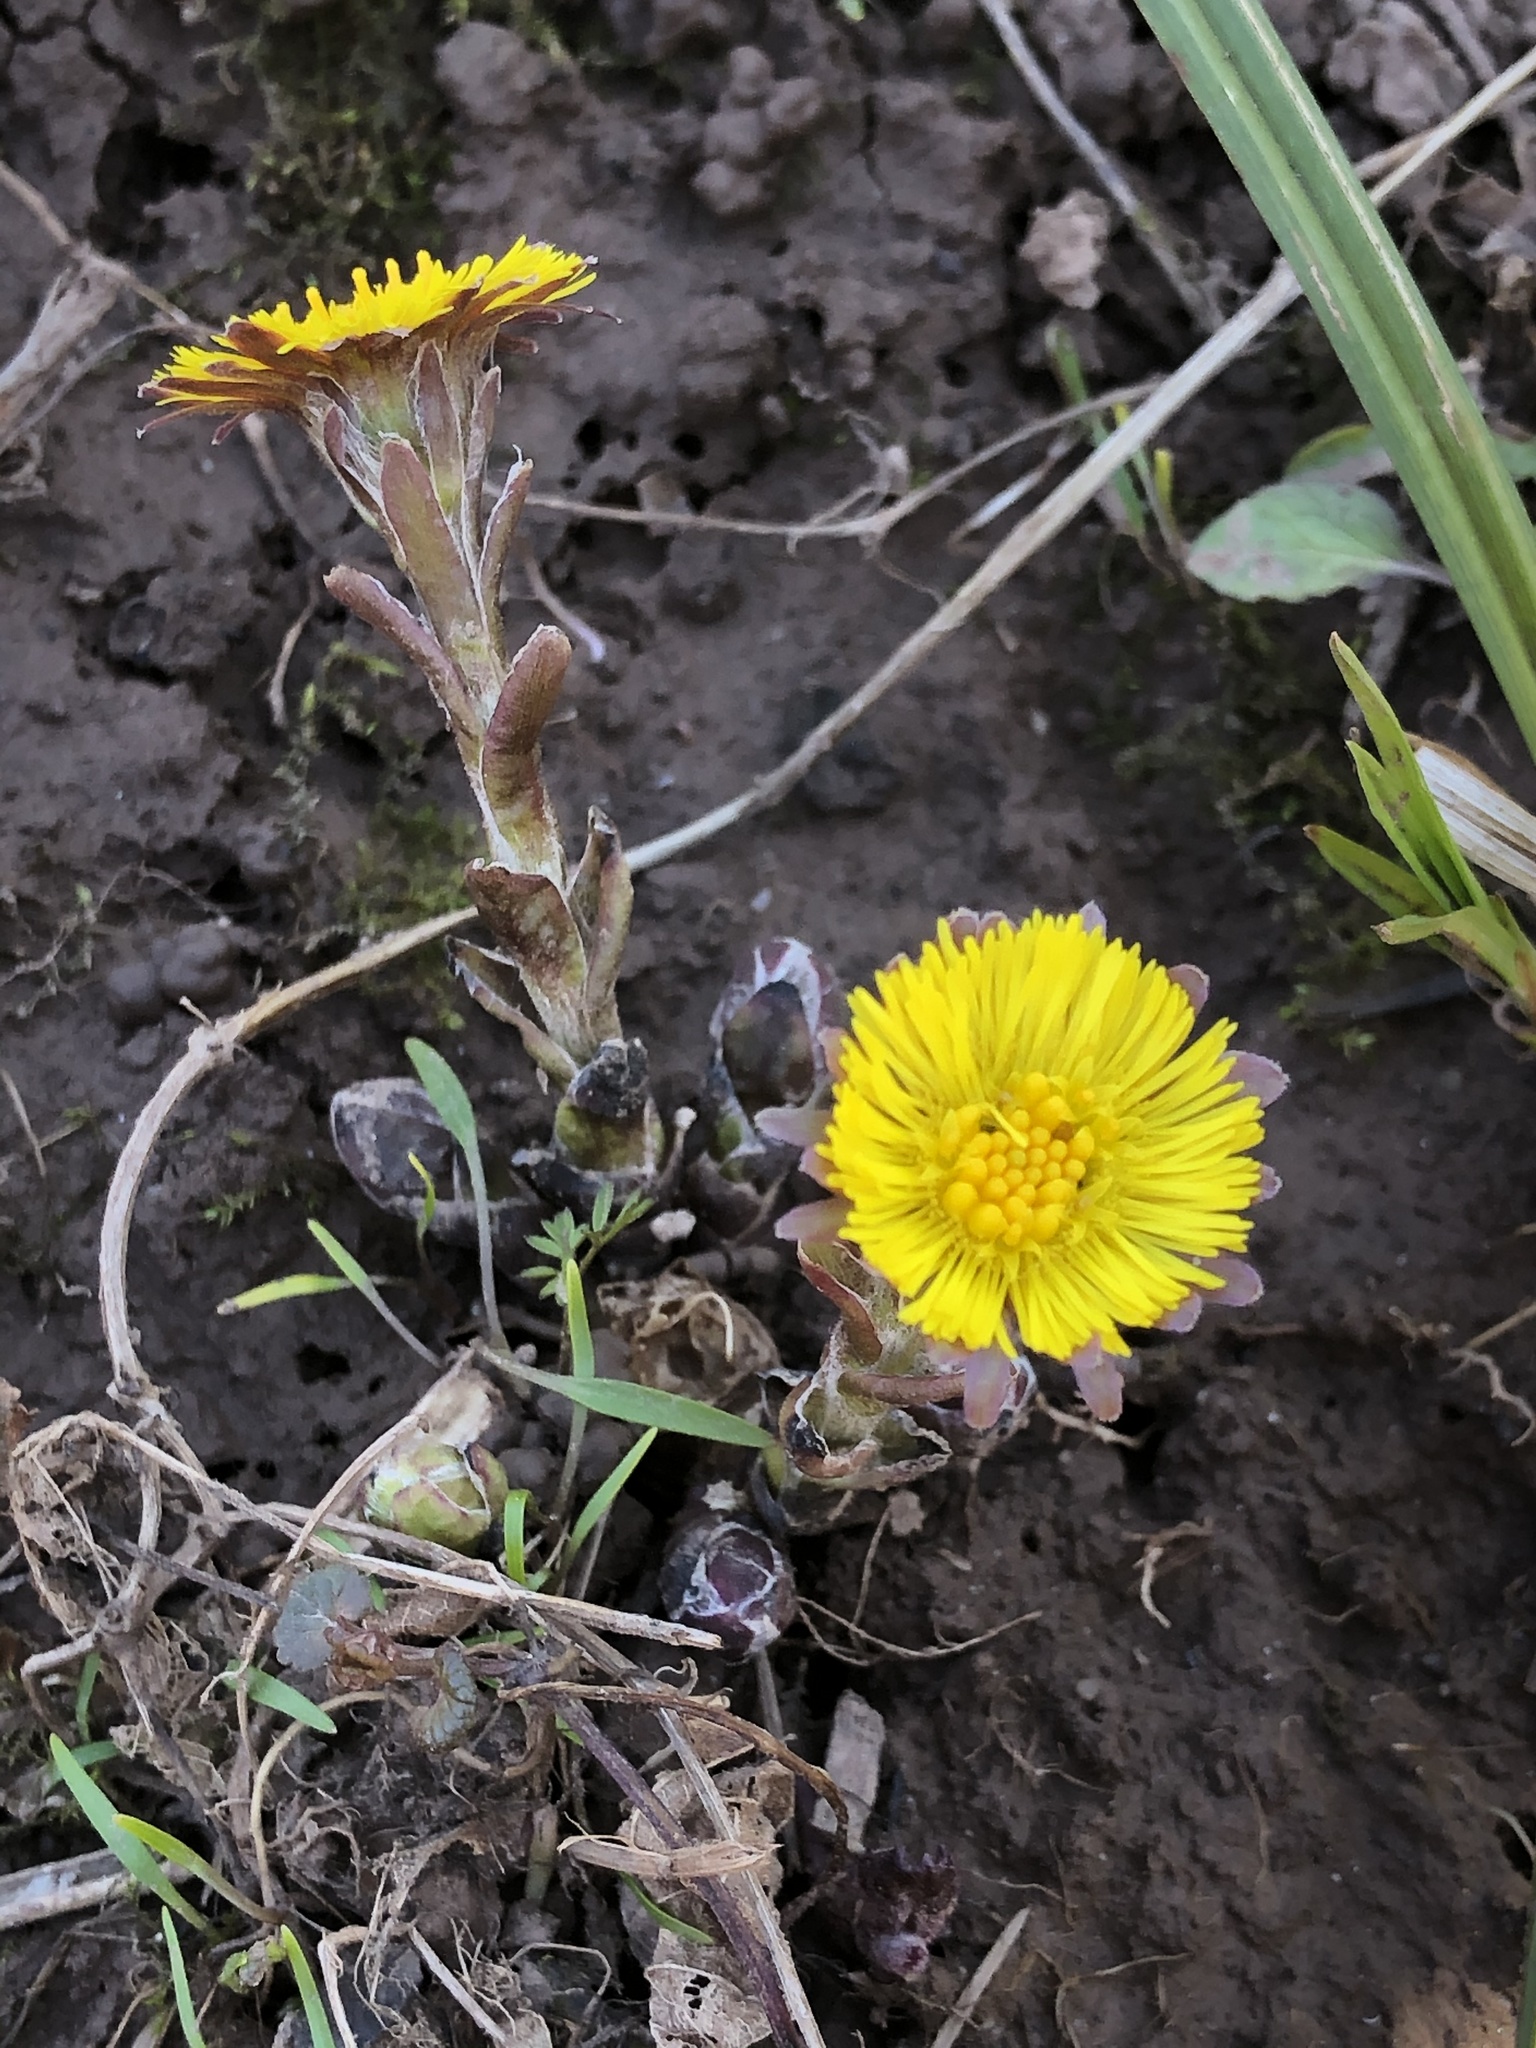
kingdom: Plantae
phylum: Tracheophyta
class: Magnoliopsida
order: Asterales
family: Asteraceae
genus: Tussilago
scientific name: Tussilago farfara
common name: Coltsfoot
